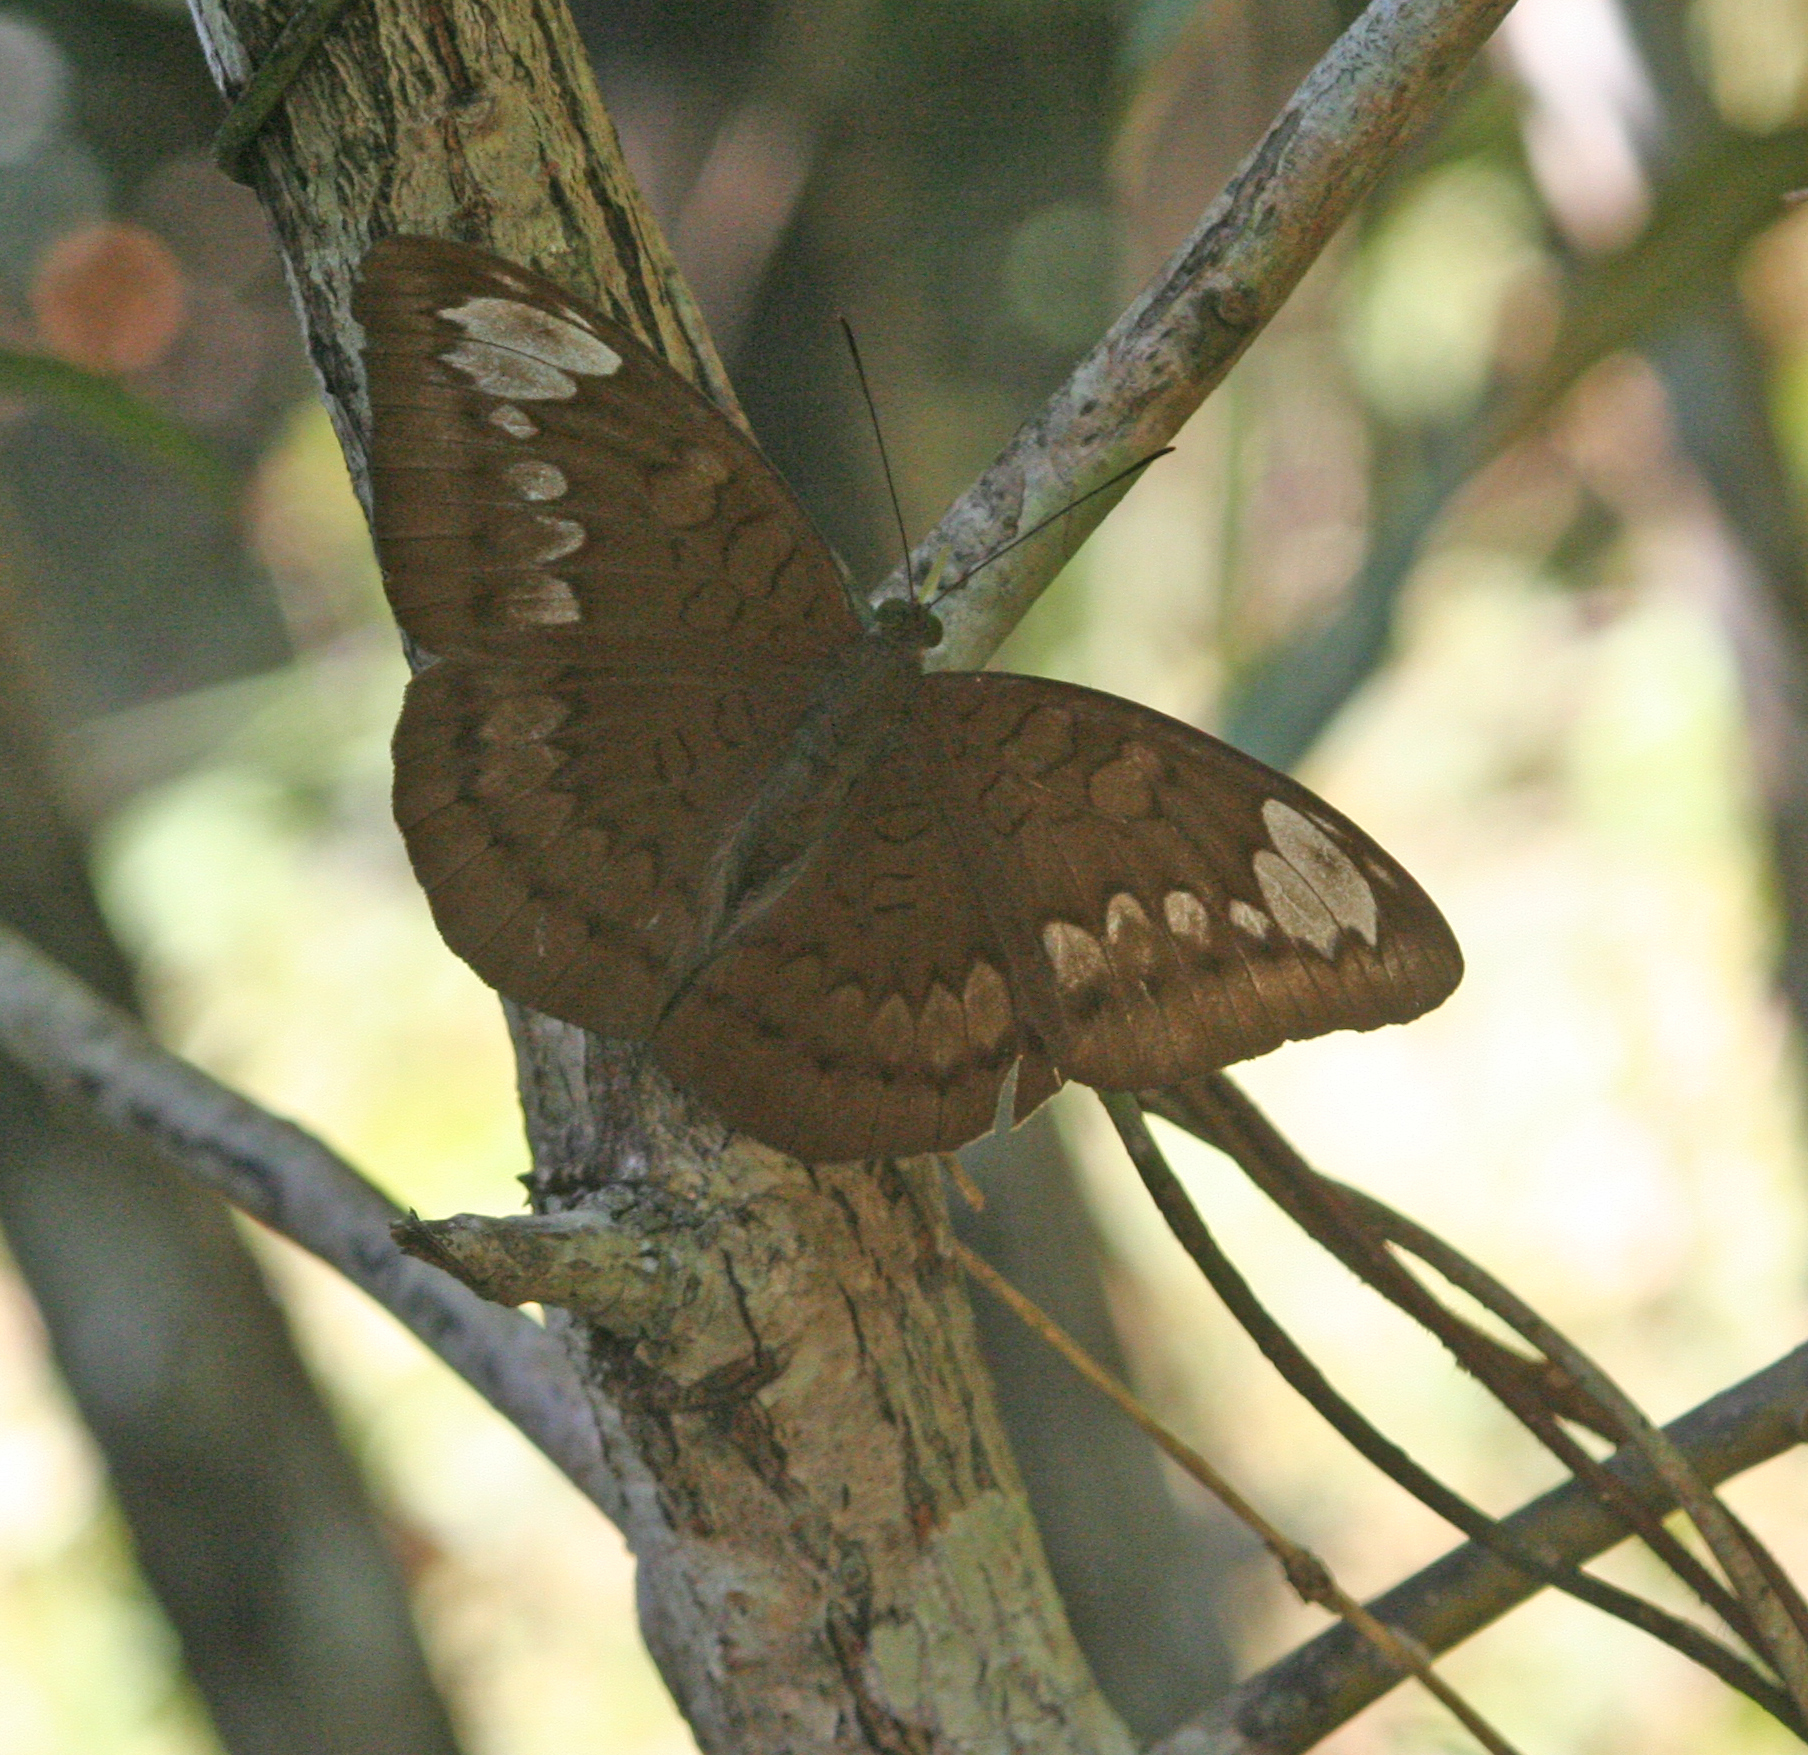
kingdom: Animalia
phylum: Arthropoda
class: Insecta
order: Lepidoptera
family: Nymphalidae
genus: Tanaecia
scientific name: Tanaecia julii
